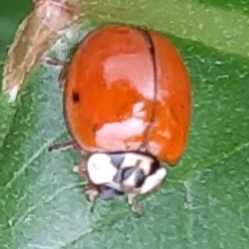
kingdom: Animalia
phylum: Arthropoda
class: Insecta
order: Coleoptera
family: Coccinellidae
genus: Harmonia
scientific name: Harmonia axyridis
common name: Harlequin ladybird
